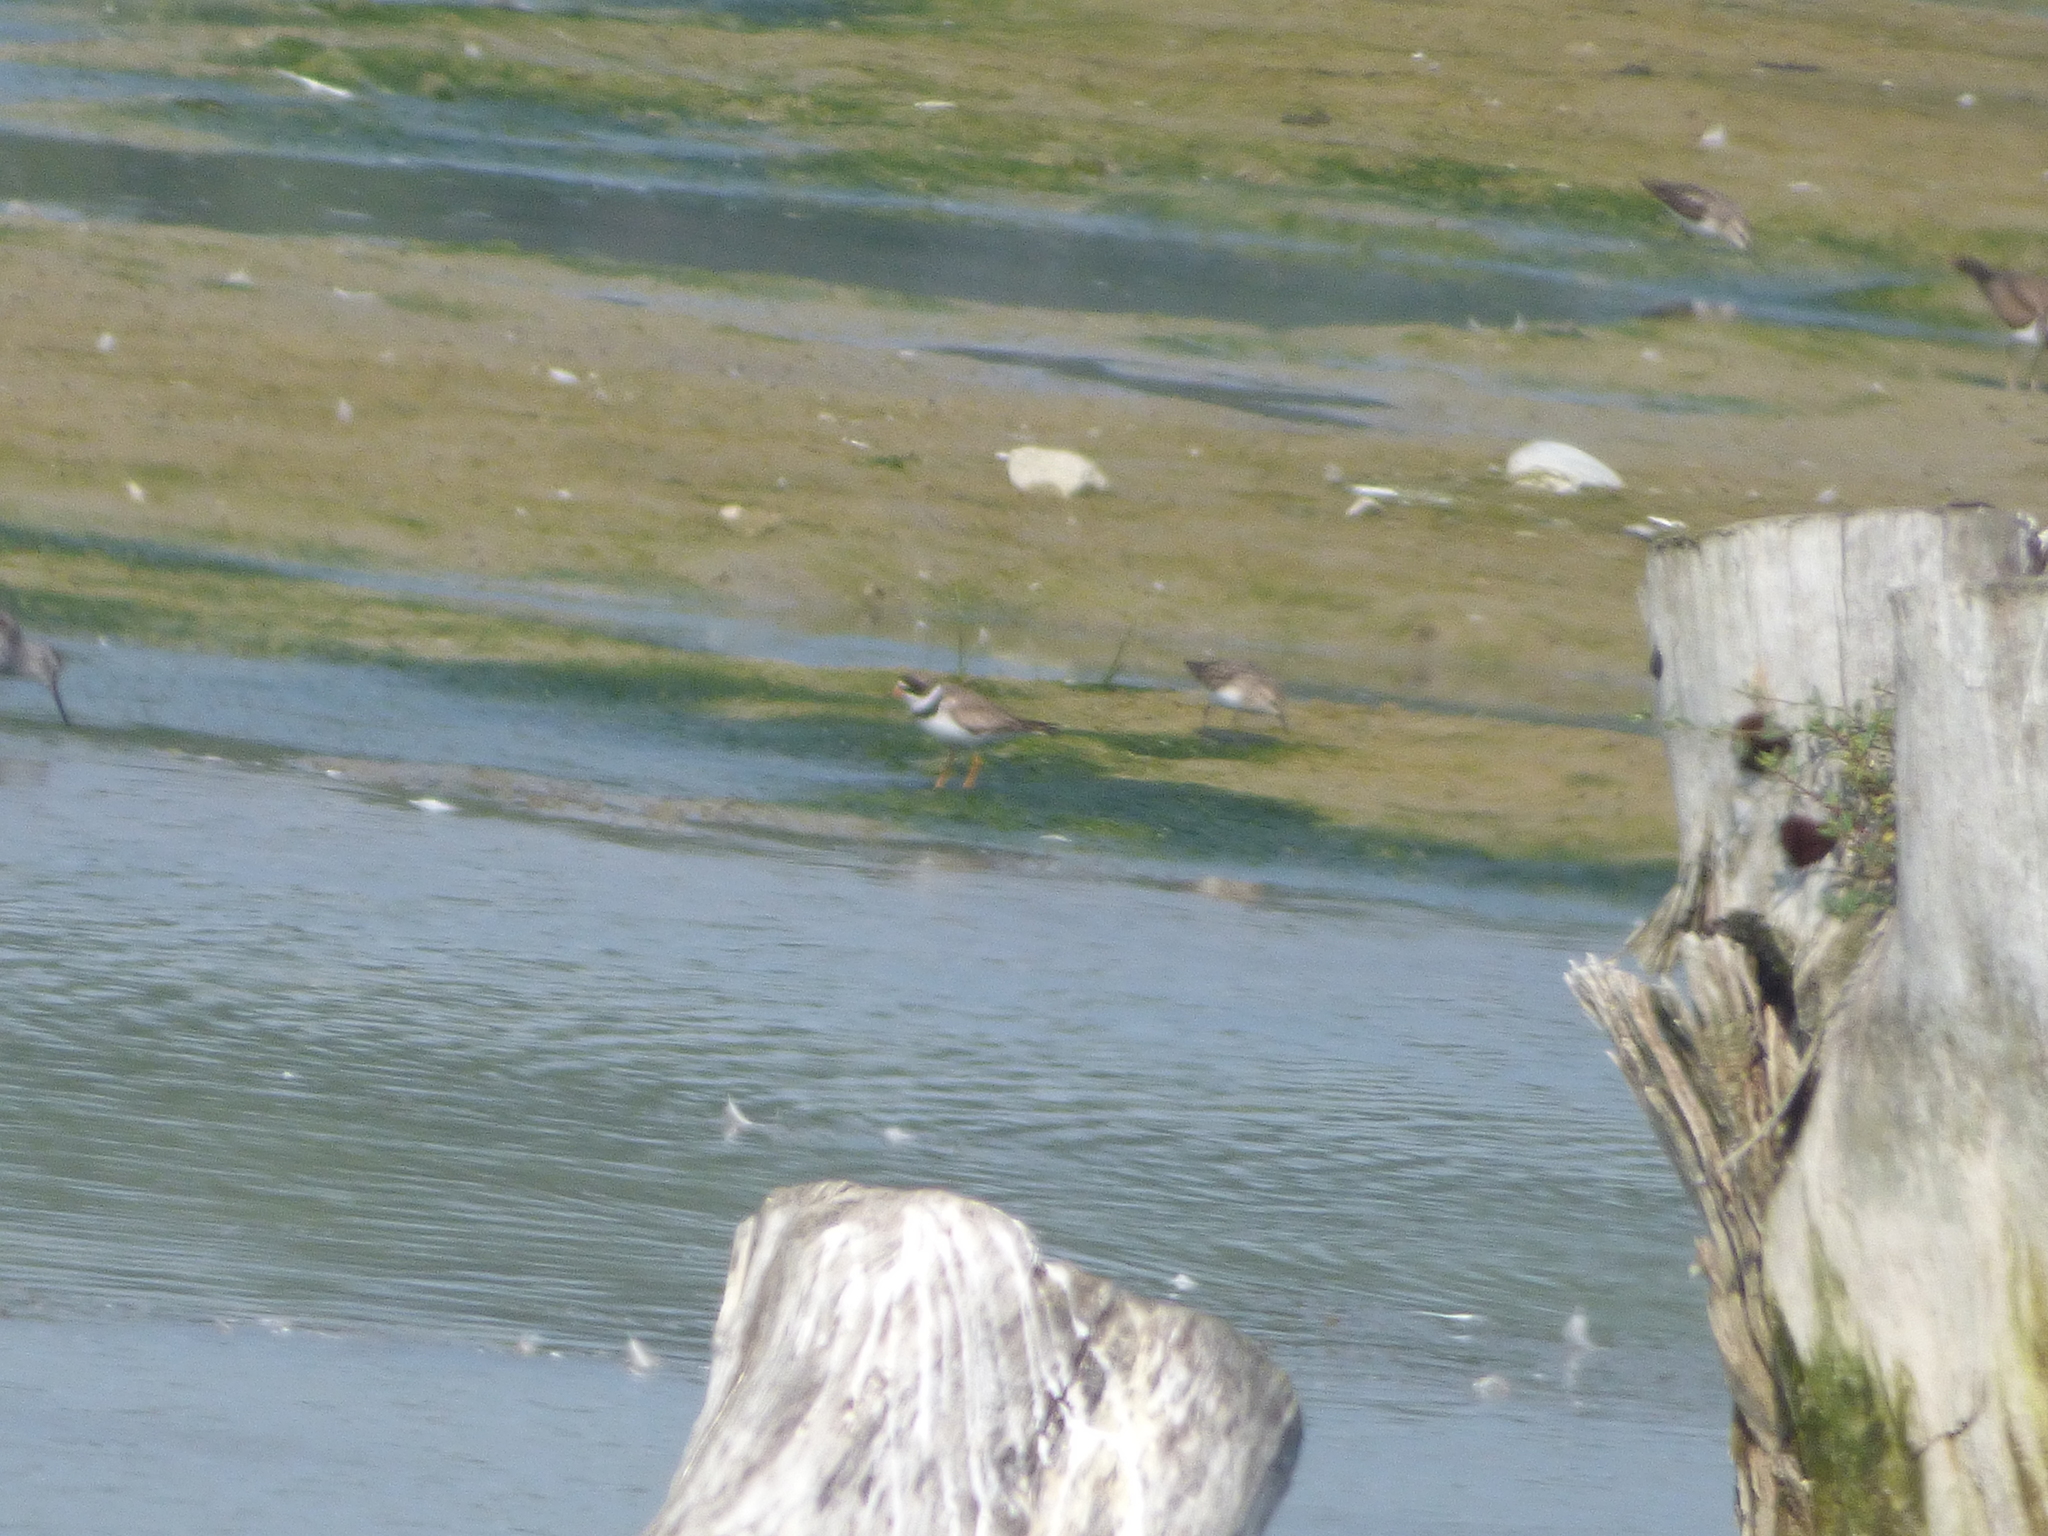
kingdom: Animalia
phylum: Chordata
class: Aves
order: Charadriiformes
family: Charadriidae
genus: Charadrius
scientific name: Charadrius semipalmatus
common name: Semipalmated plover
